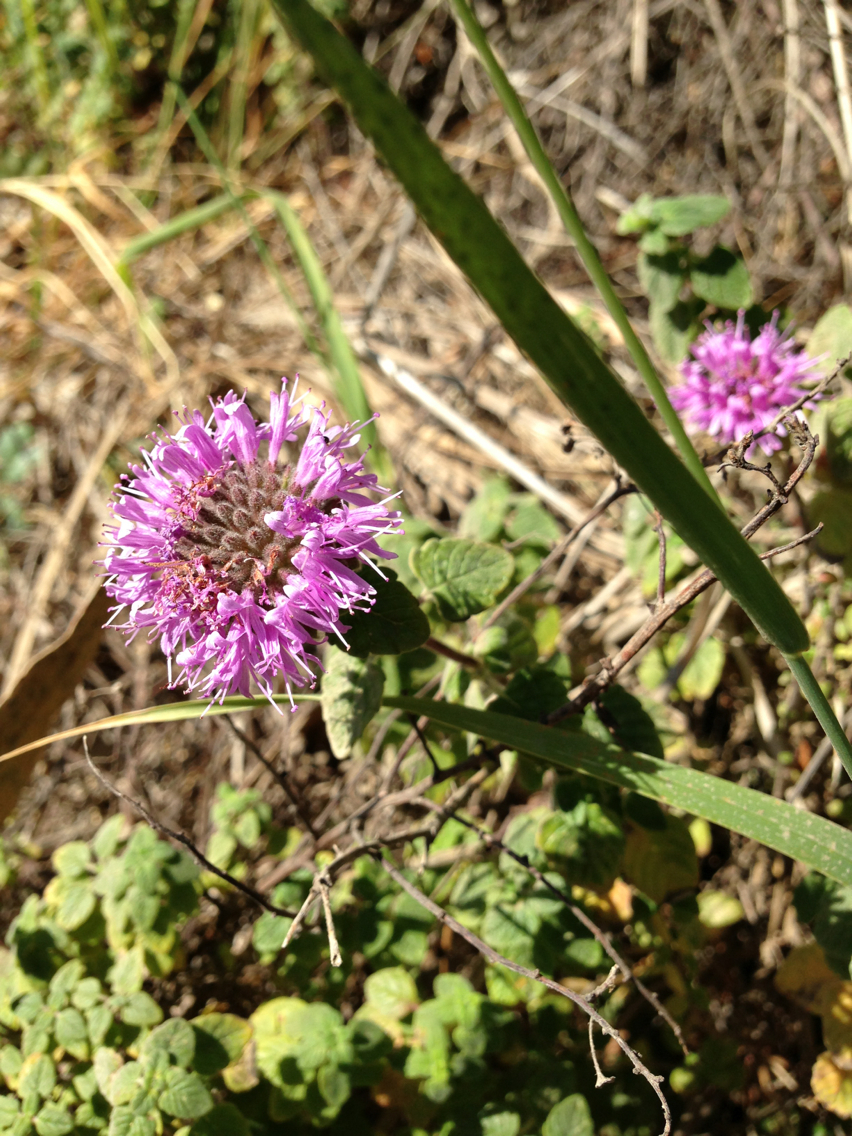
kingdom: Plantae
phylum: Tracheophyta
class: Magnoliopsida
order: Lamiales
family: Lamiaceae
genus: Monardella
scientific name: Monardella odoratissima
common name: Pacific monardella
